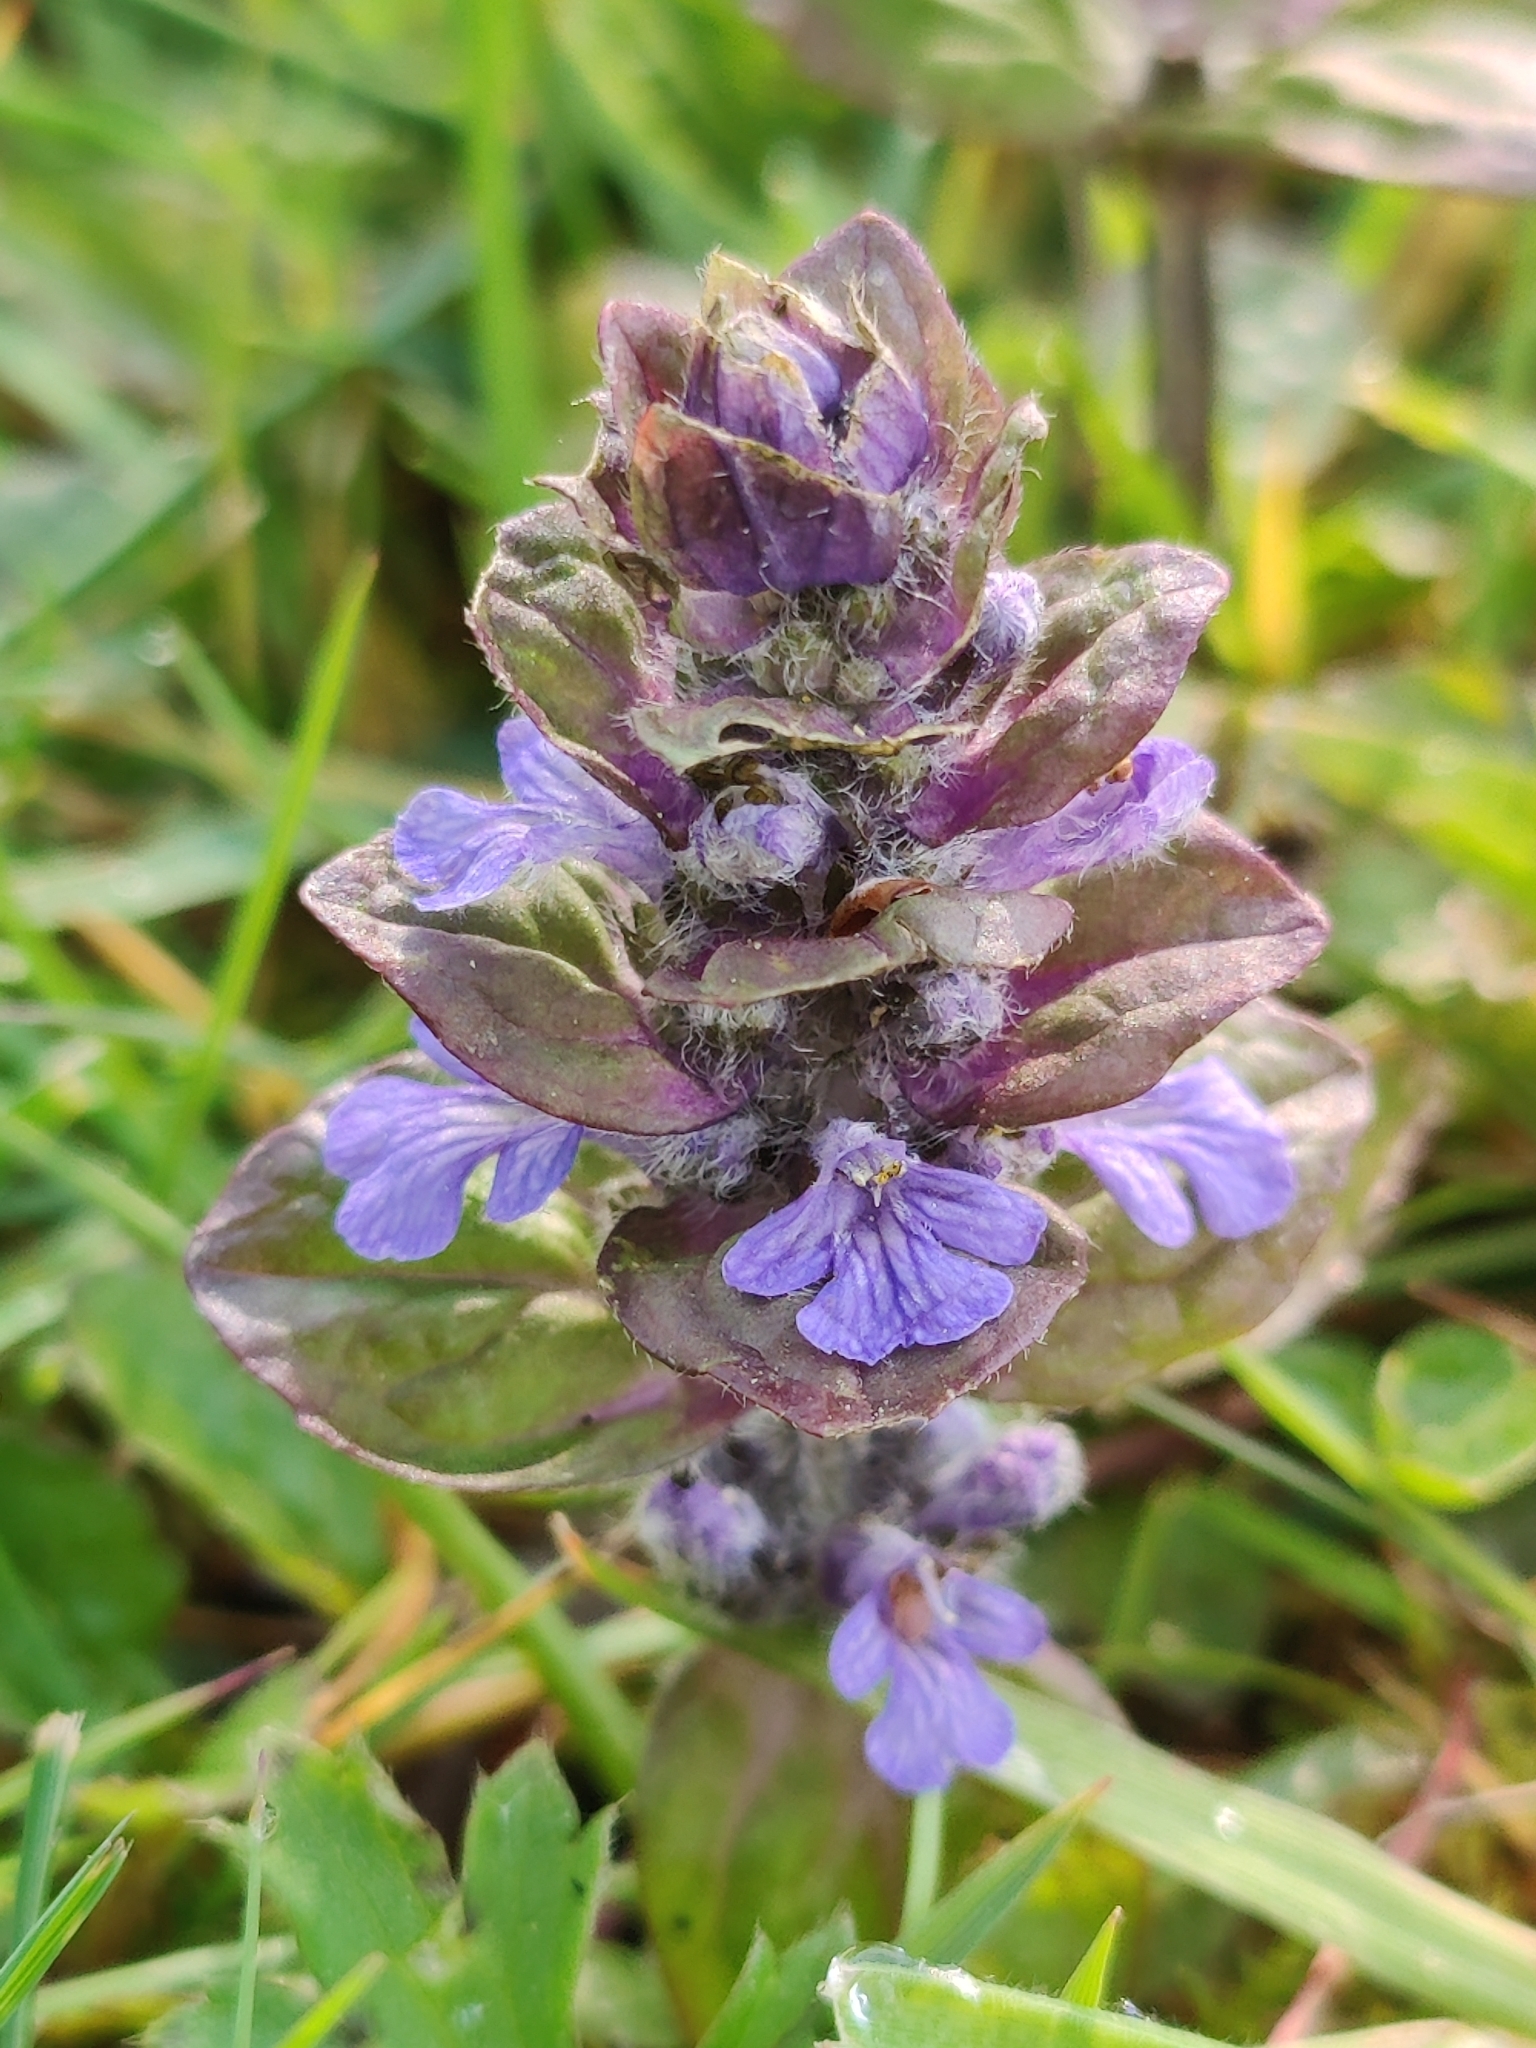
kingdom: Plantae
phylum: Tracheophyta
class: Magnoliopsida
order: Lamiales
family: Lamiaceae
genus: Ajuga
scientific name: Ajuga reptans
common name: Bugle
